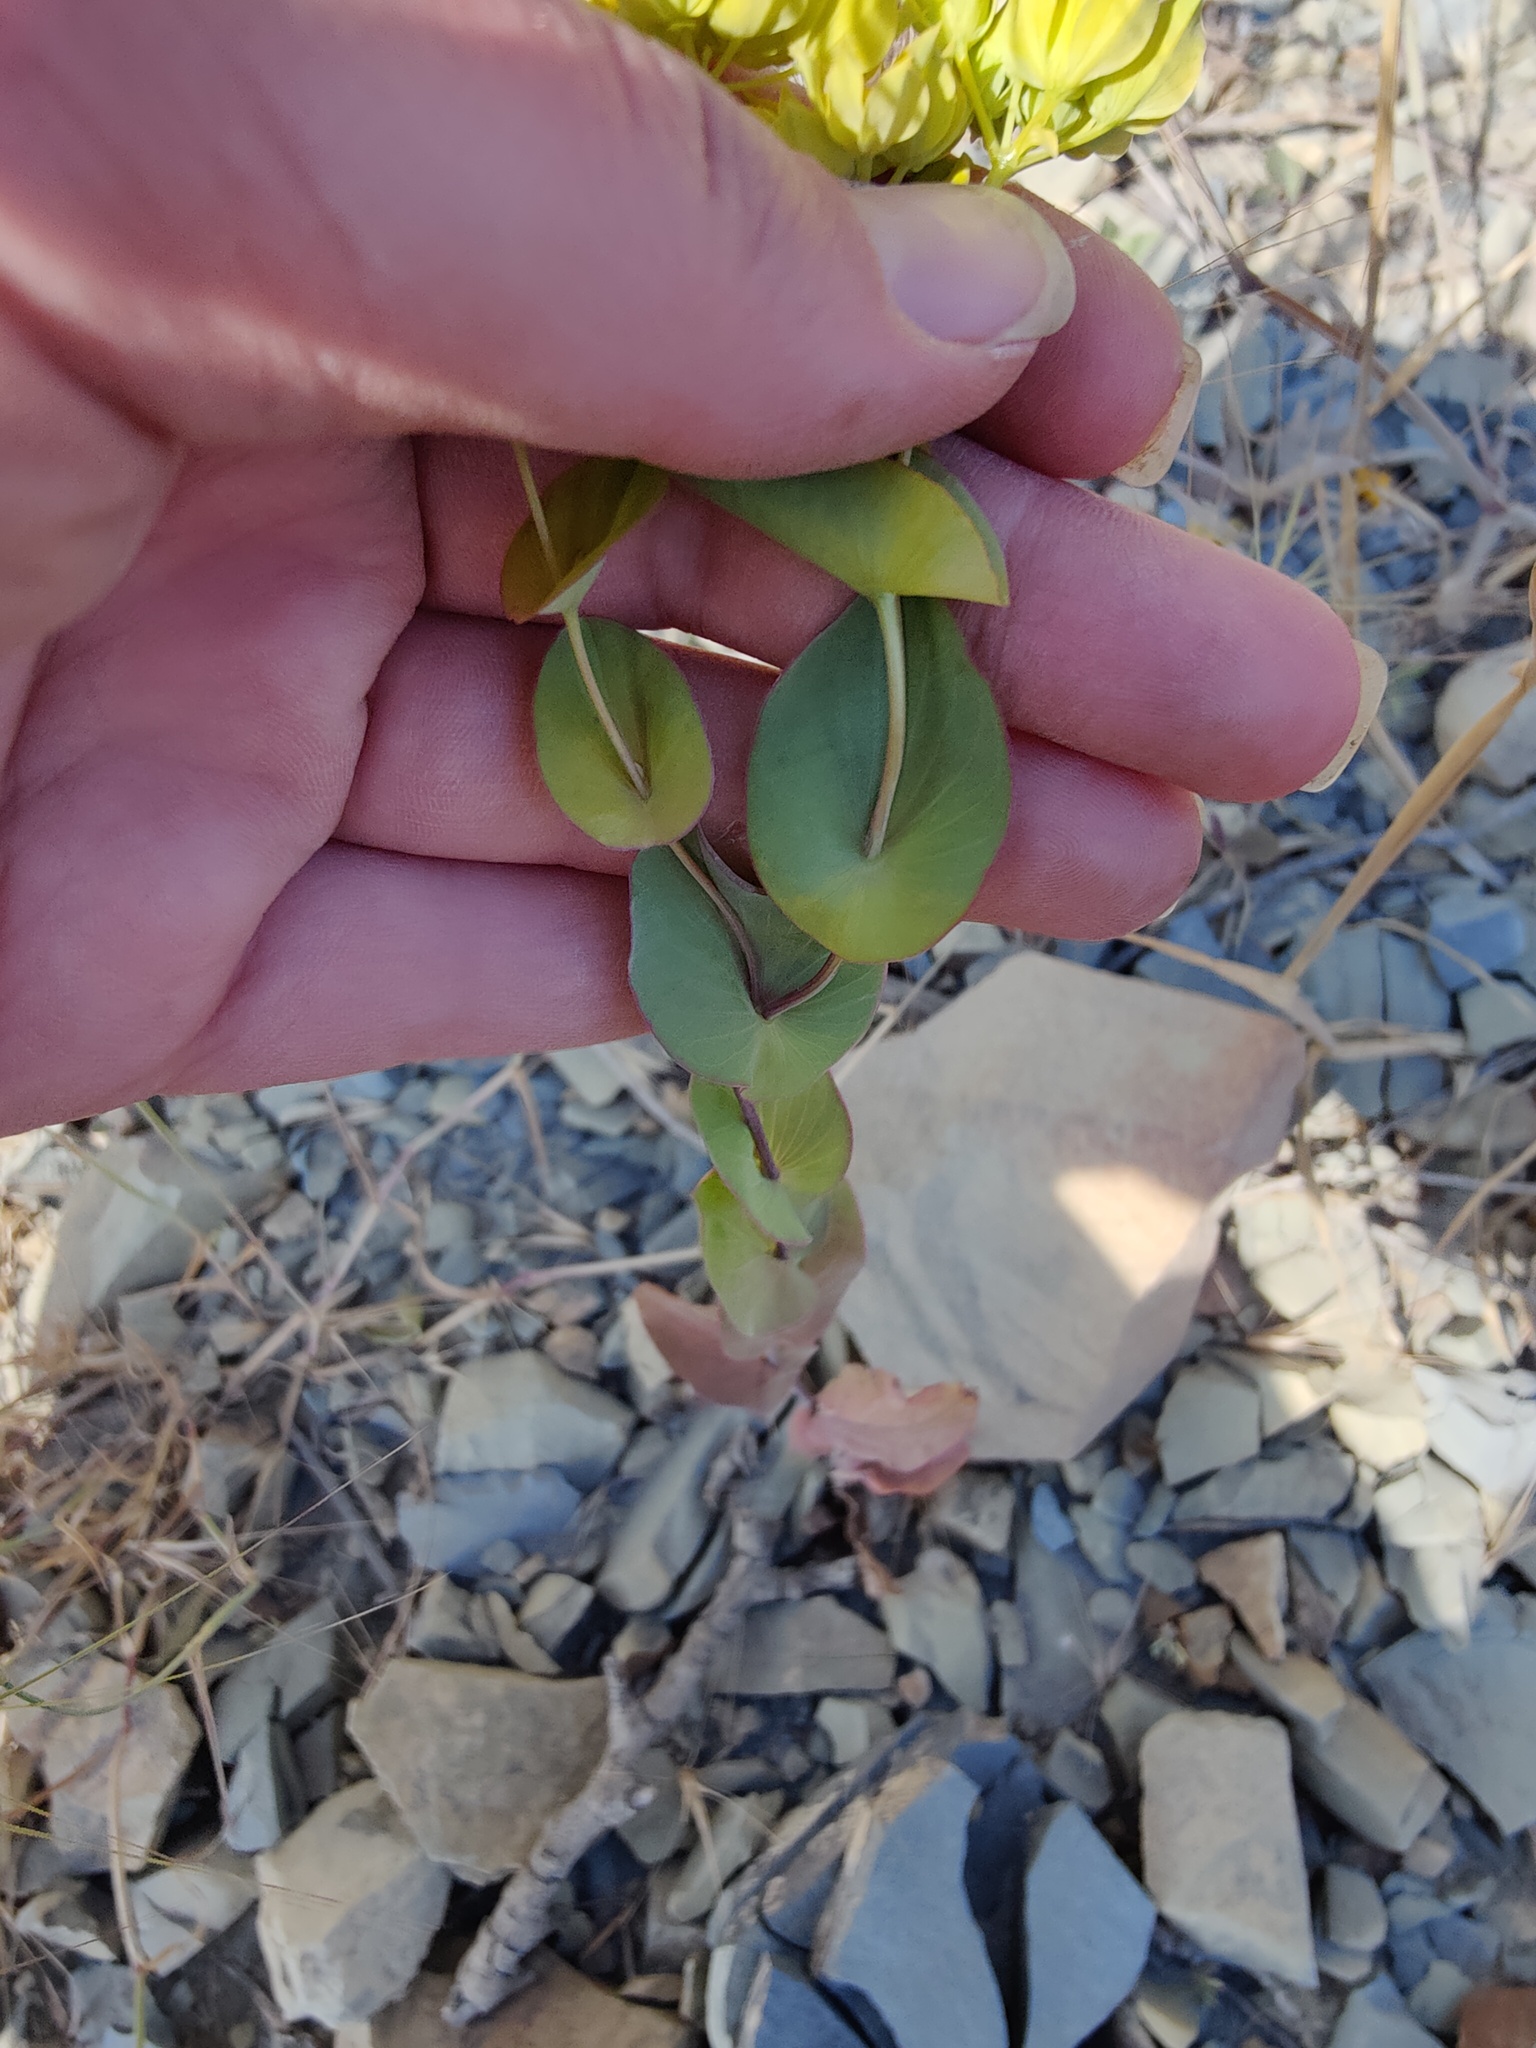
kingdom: Plantae
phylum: Tracheophyta
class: Magnoliopsida
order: Apiales
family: Apiaceae
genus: Bupleurum
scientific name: Bupleurum rotundifolium
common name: Thorow-wax
